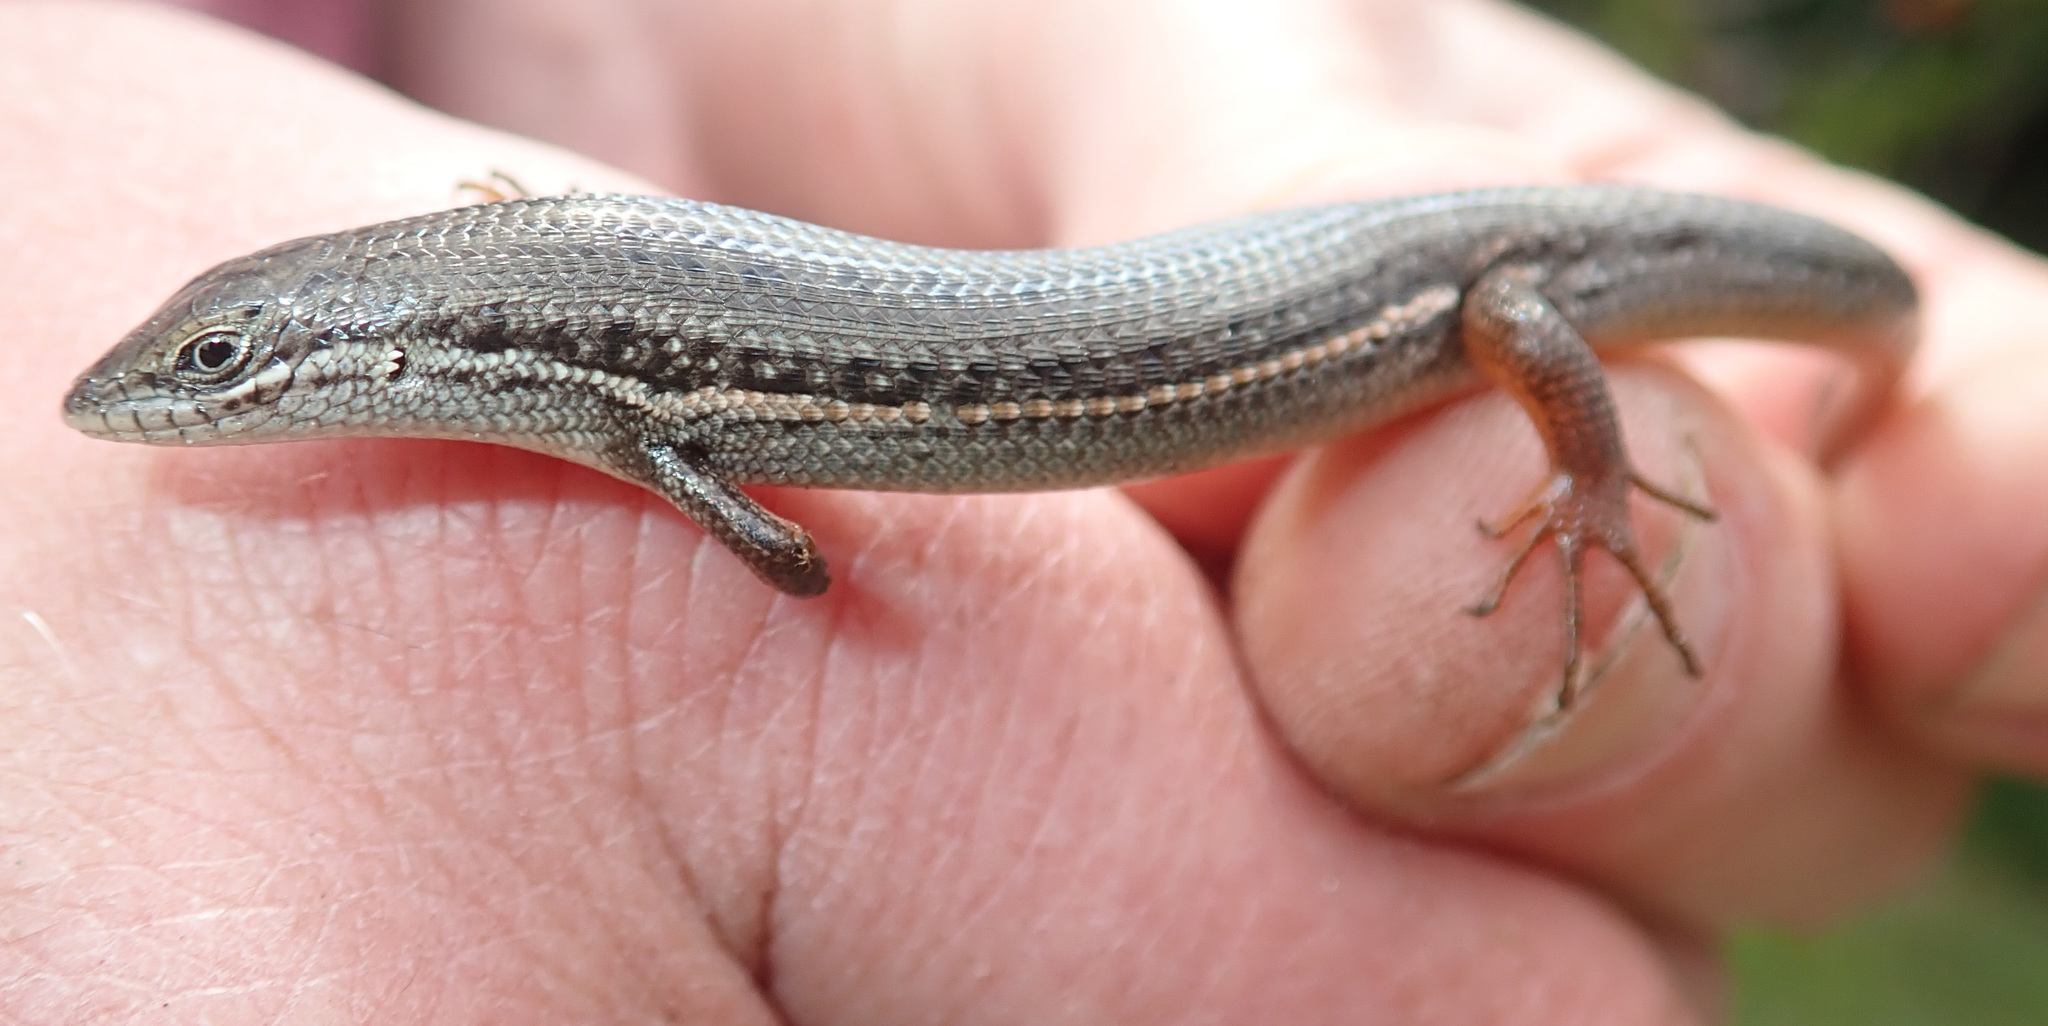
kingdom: Animalia
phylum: Chordata
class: Squamata
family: Scincidae
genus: Trachylepis
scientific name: Trachylepis homalocephala
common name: Red-sided skink
